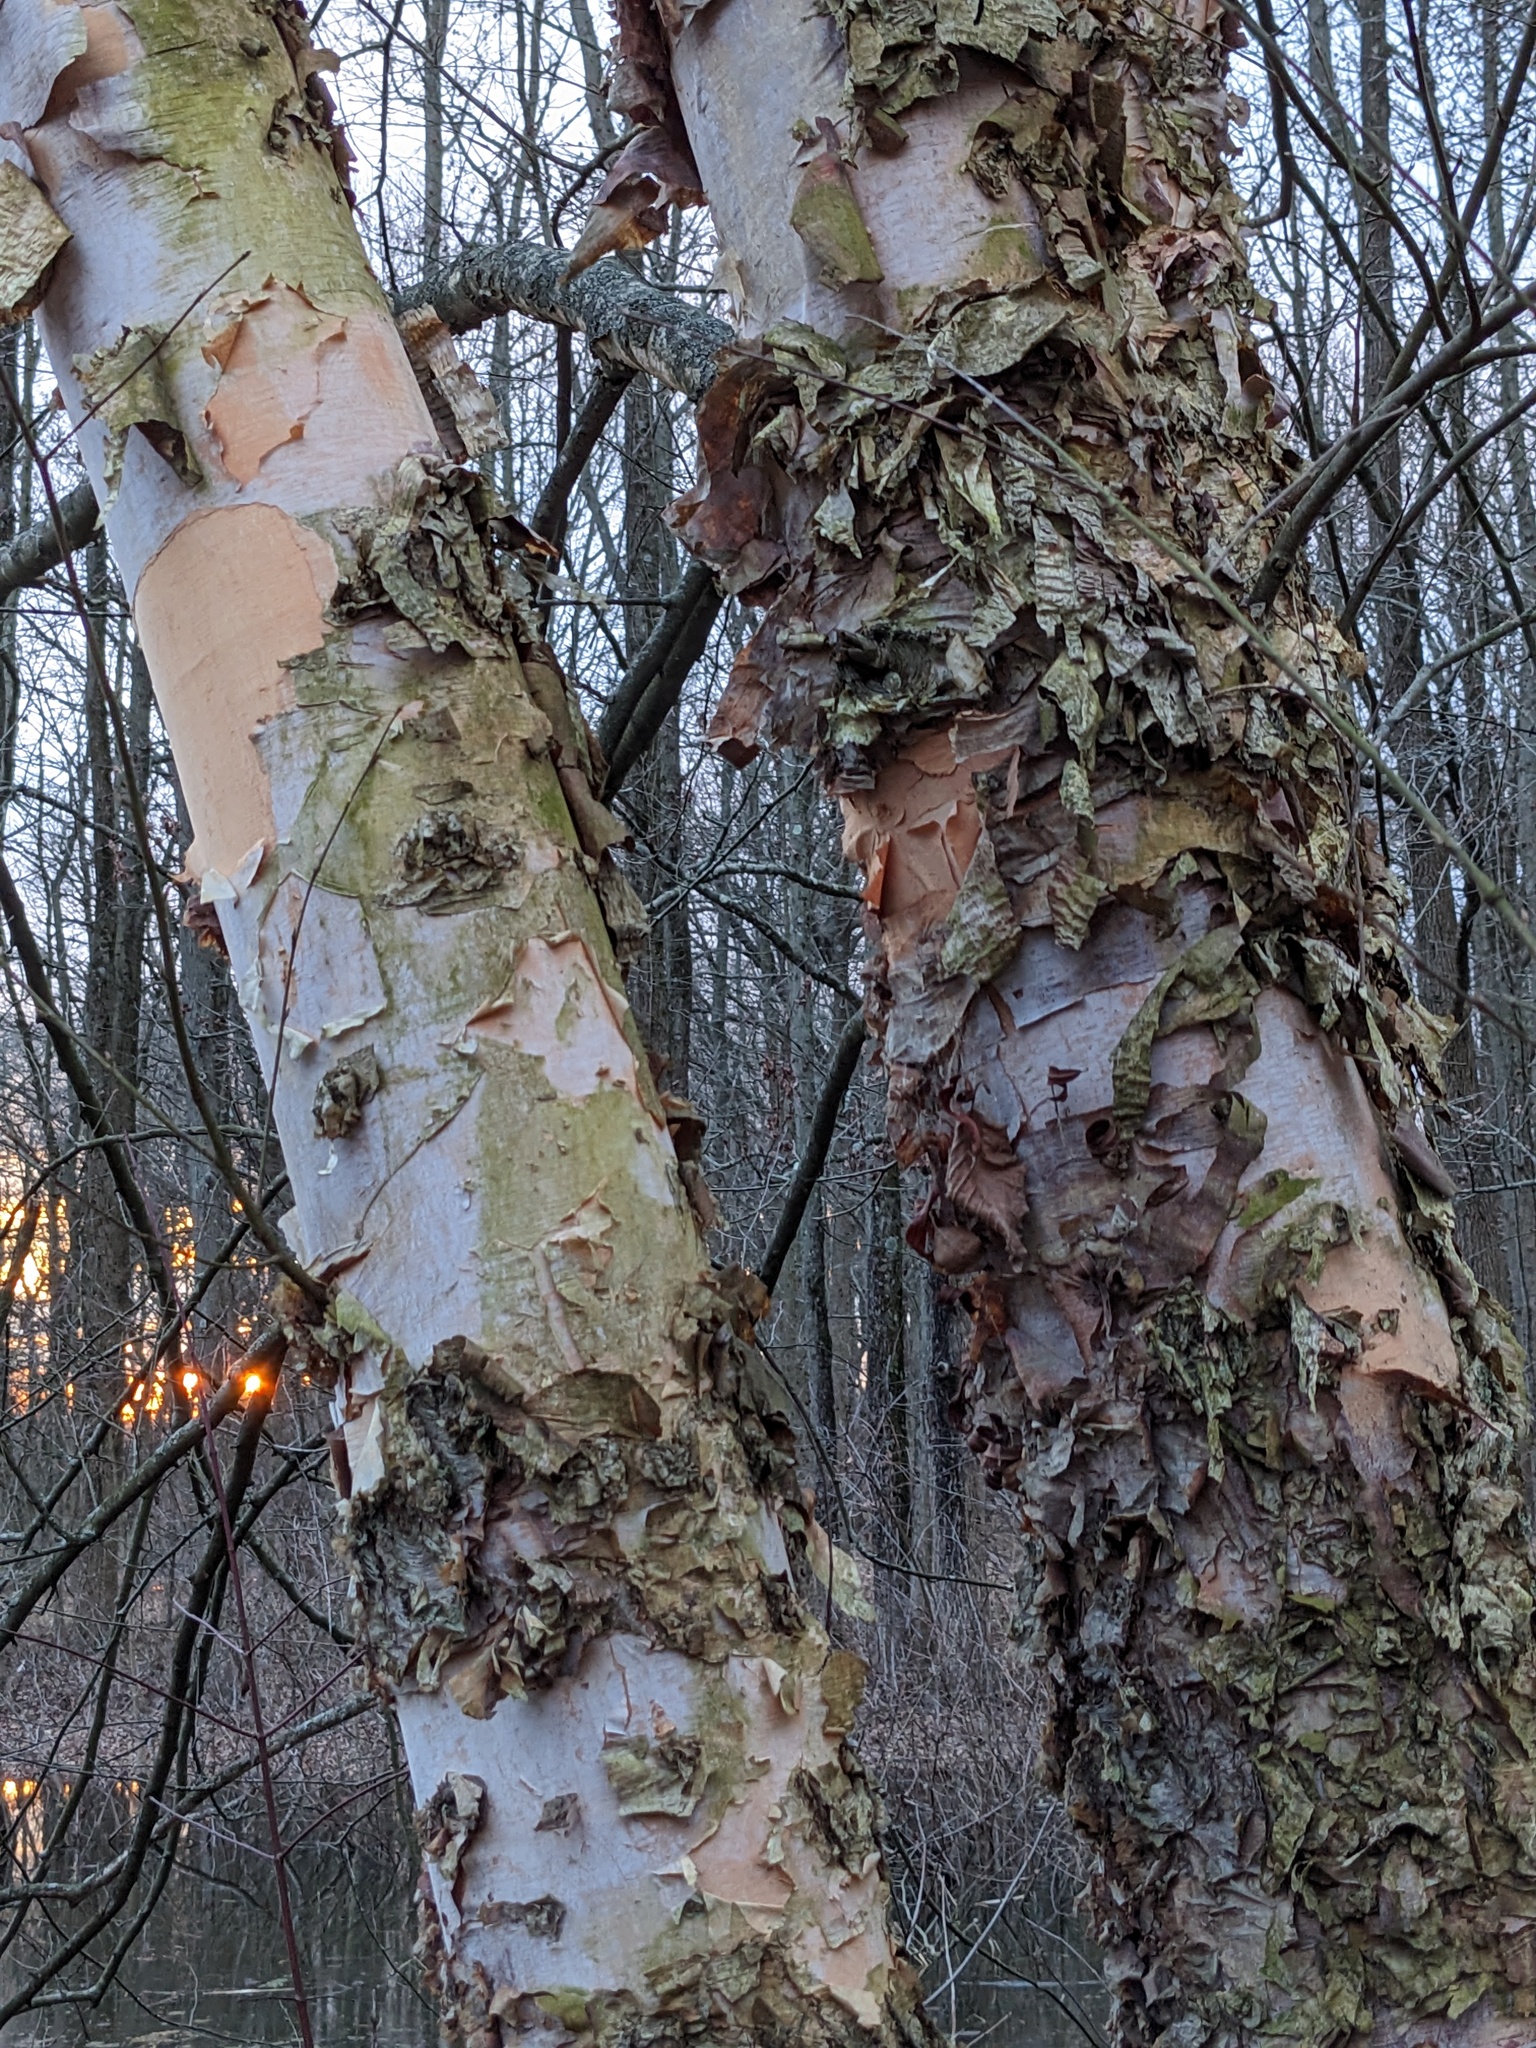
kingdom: Plantae
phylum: Tracheophyta
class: Magnoliopsida
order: Fagales
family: Betulaceae
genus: Betula
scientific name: Betula nigra
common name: Black birch
